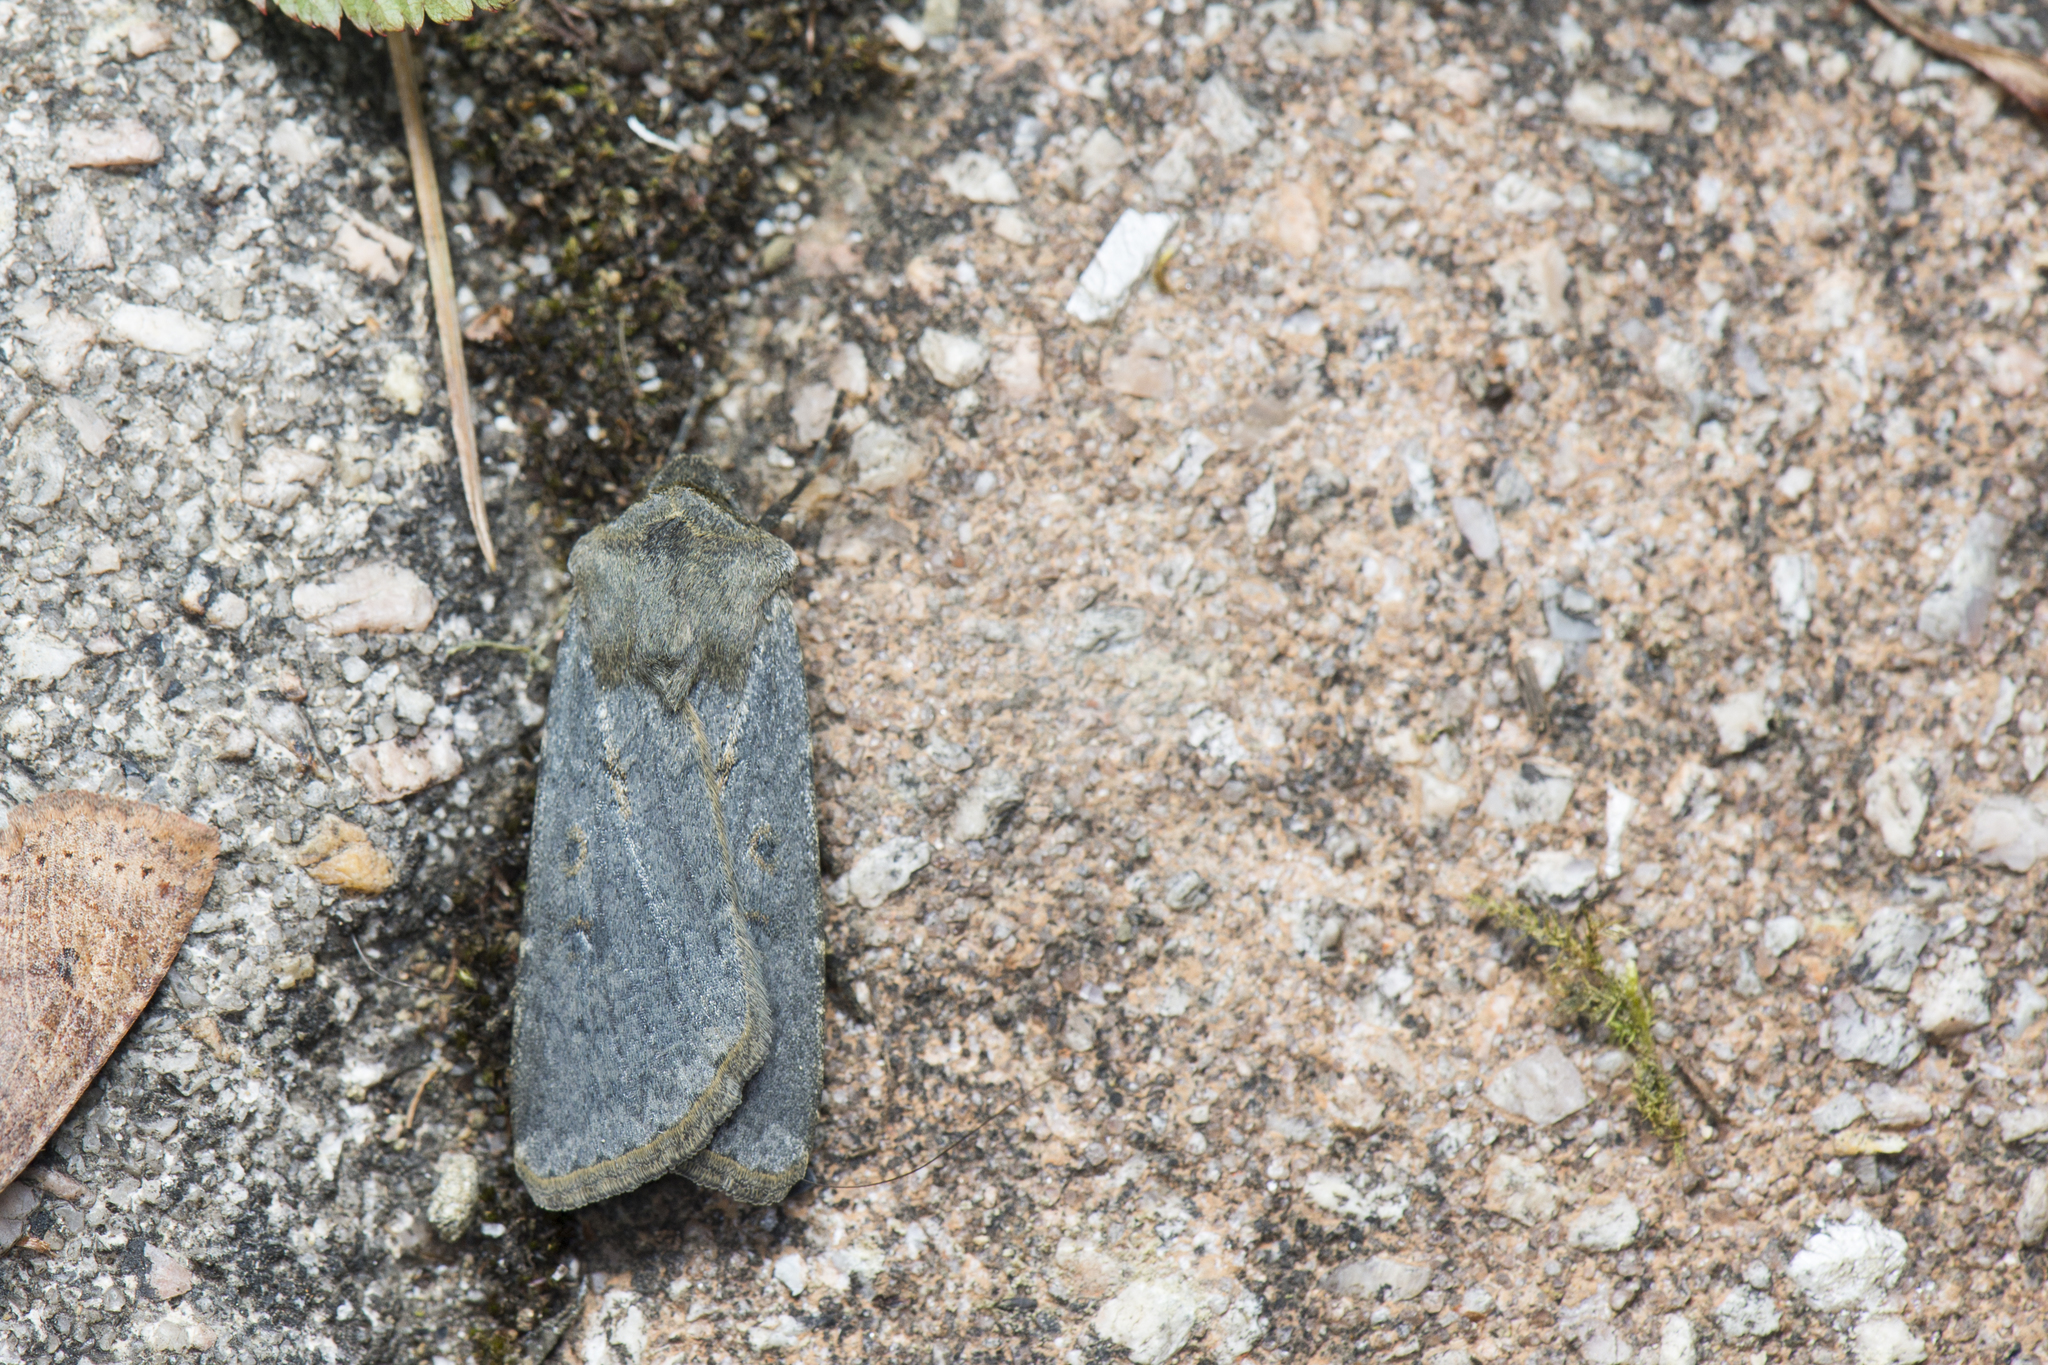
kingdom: Animalia
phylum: Arthropoda
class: Insecta
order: Lepidoptera
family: Noctuidae
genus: Agrotis
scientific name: Agrotis taiwana
